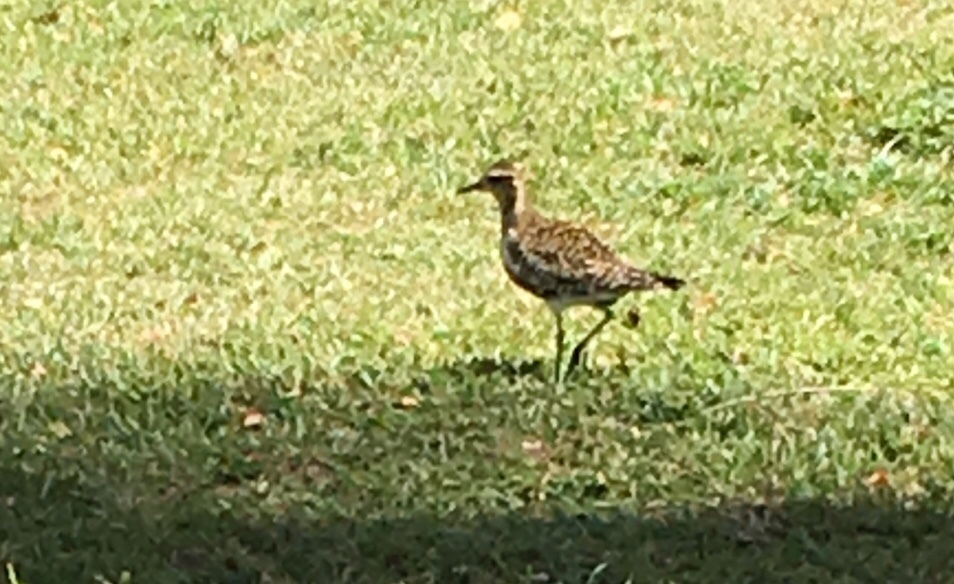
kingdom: Animalia
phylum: Chordata
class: Aves
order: Charadriiformes
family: Charadriidae
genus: Pluvialis
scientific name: Pluvialis fulva
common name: Pacific golden plover
